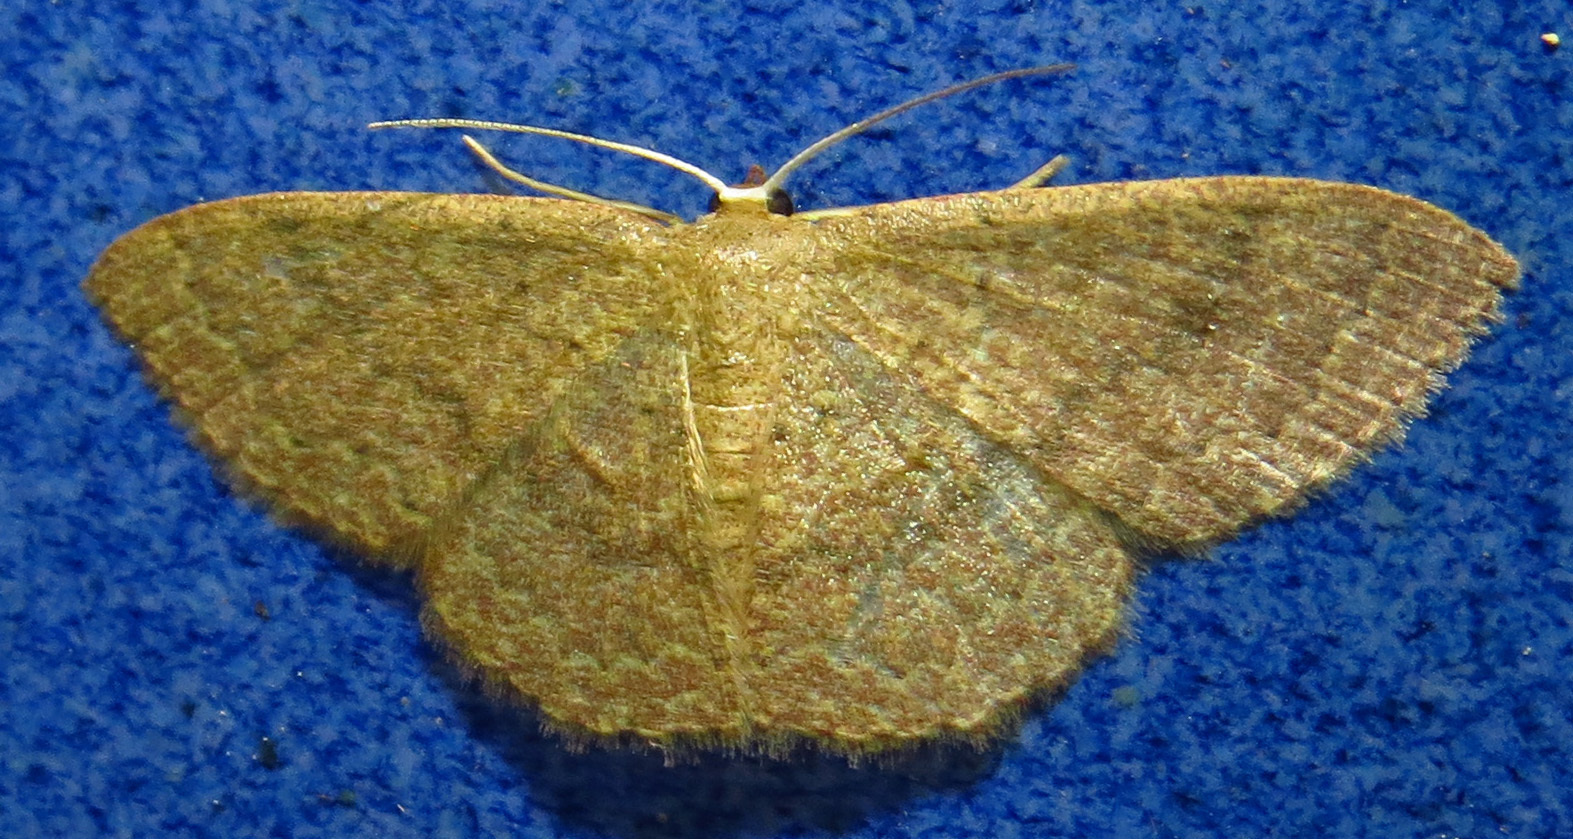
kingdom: Animalia
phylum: Arthropoda
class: Insecta
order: Lepidoptera
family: Geometridae
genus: Pleuroprucha
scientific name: Pleuroprucha insulsaria
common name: Common tan wave
